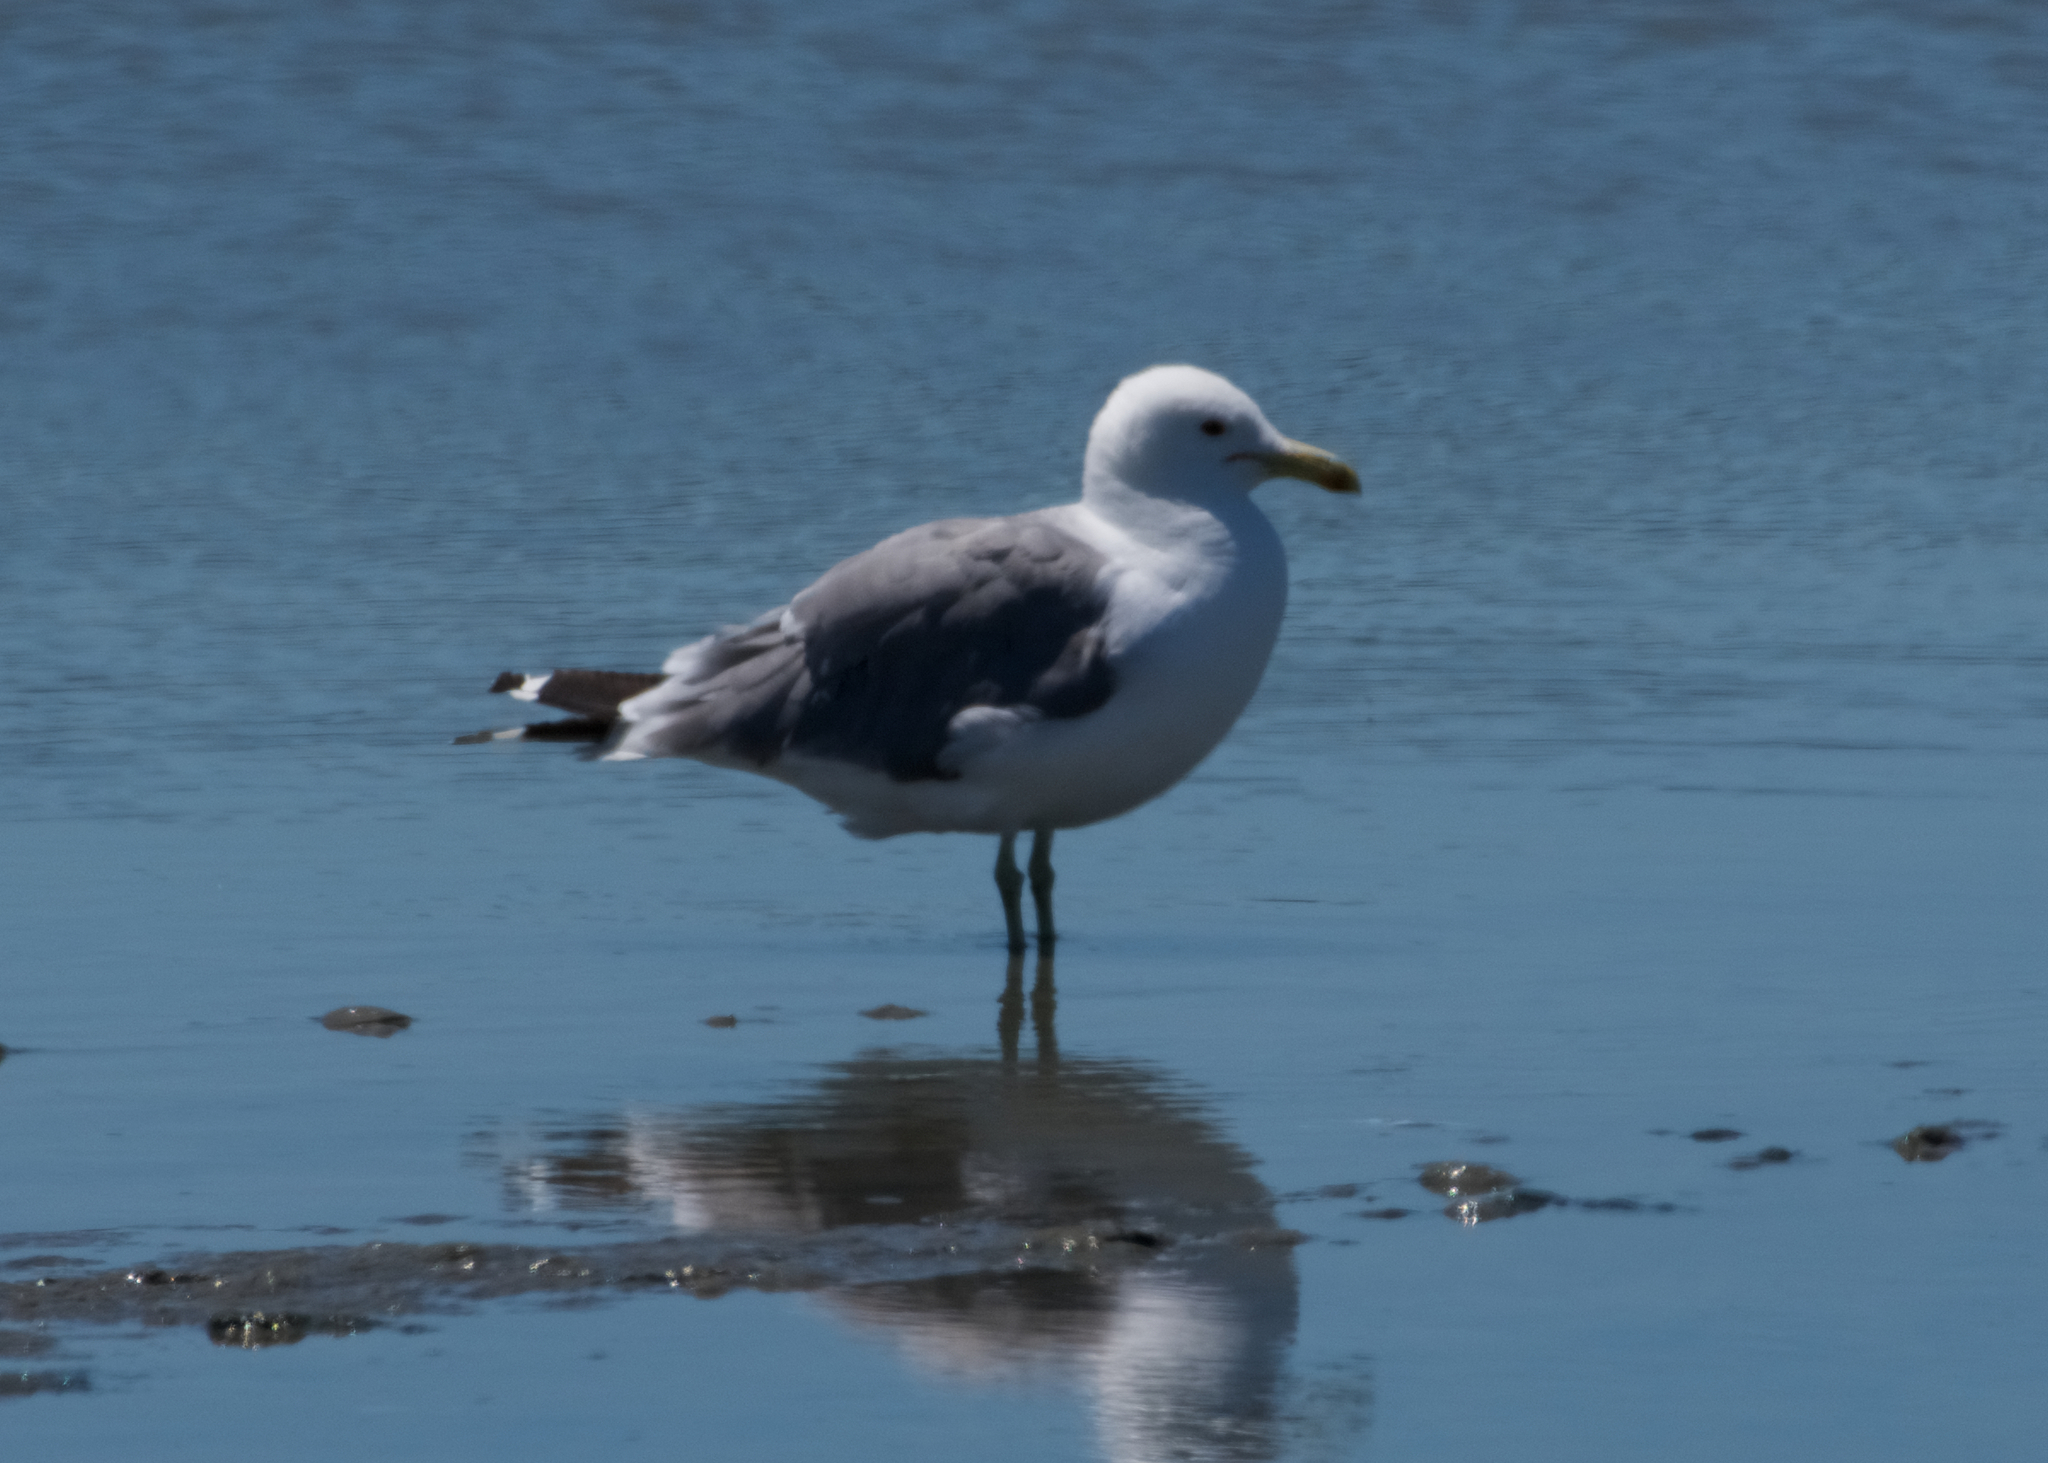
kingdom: Animalia
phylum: Chordata
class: Aves
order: Charadriiformes
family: Laridae
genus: Larus
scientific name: Larus californicus
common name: California gull
